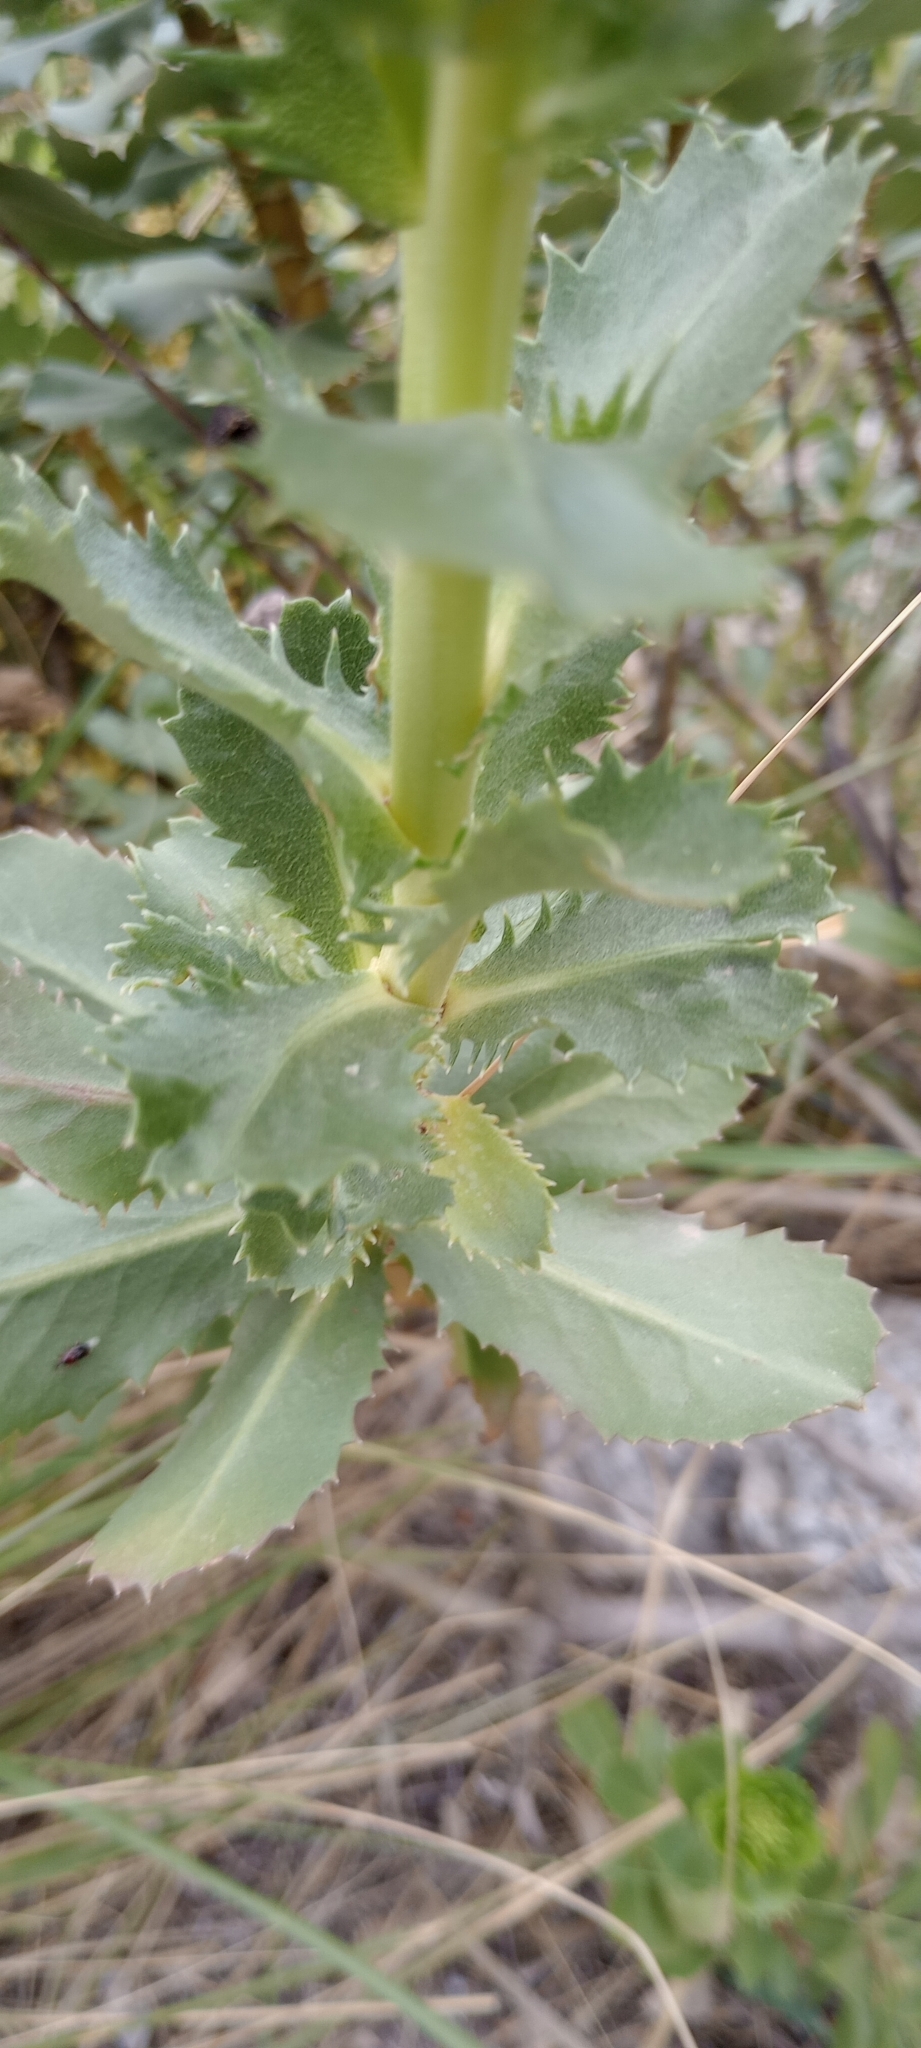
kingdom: Plantae
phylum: Tracheophyta
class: Magnoliopsida
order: Asterales
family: Asteraceae
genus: Grindelia
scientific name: Grindelia buphthalmoides
